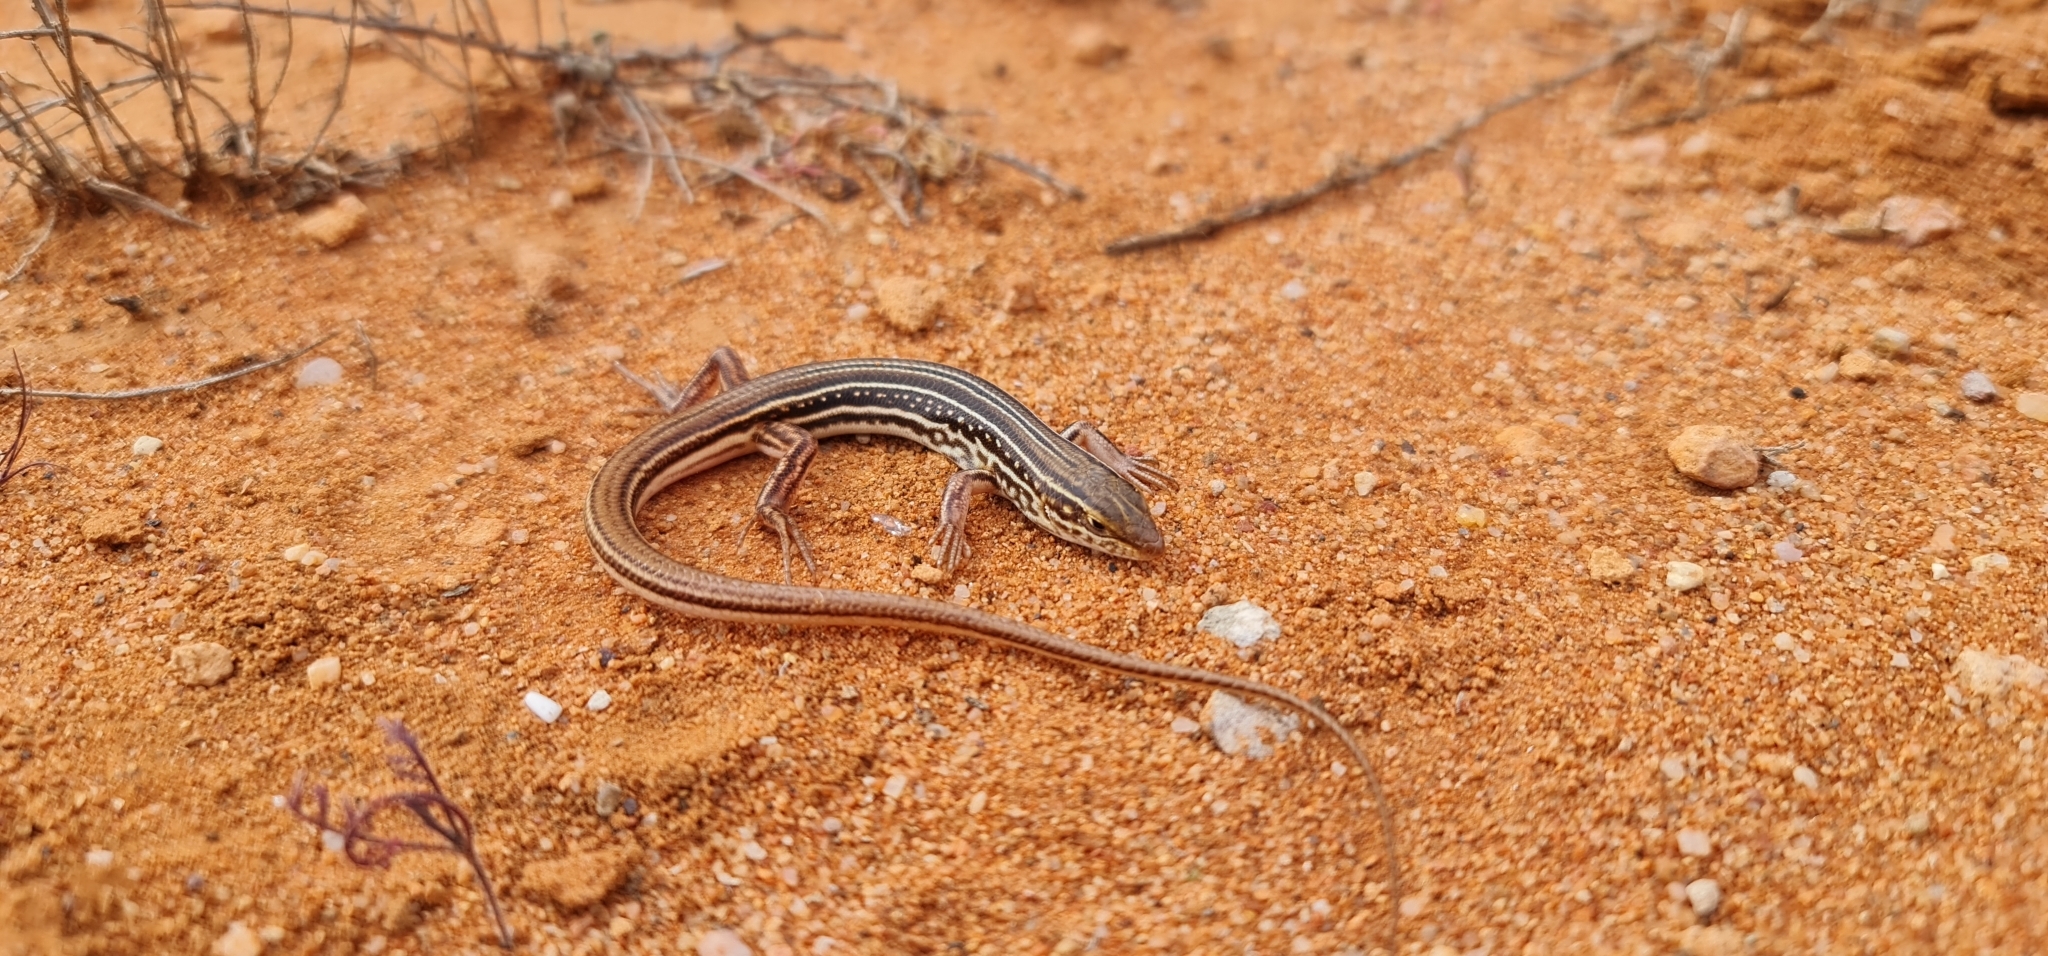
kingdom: Animalia
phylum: Chordata
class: Squamata
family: Scincidae
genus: Ctenotus
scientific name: Ctenotus regius
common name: Pale-rumped ctenotus
